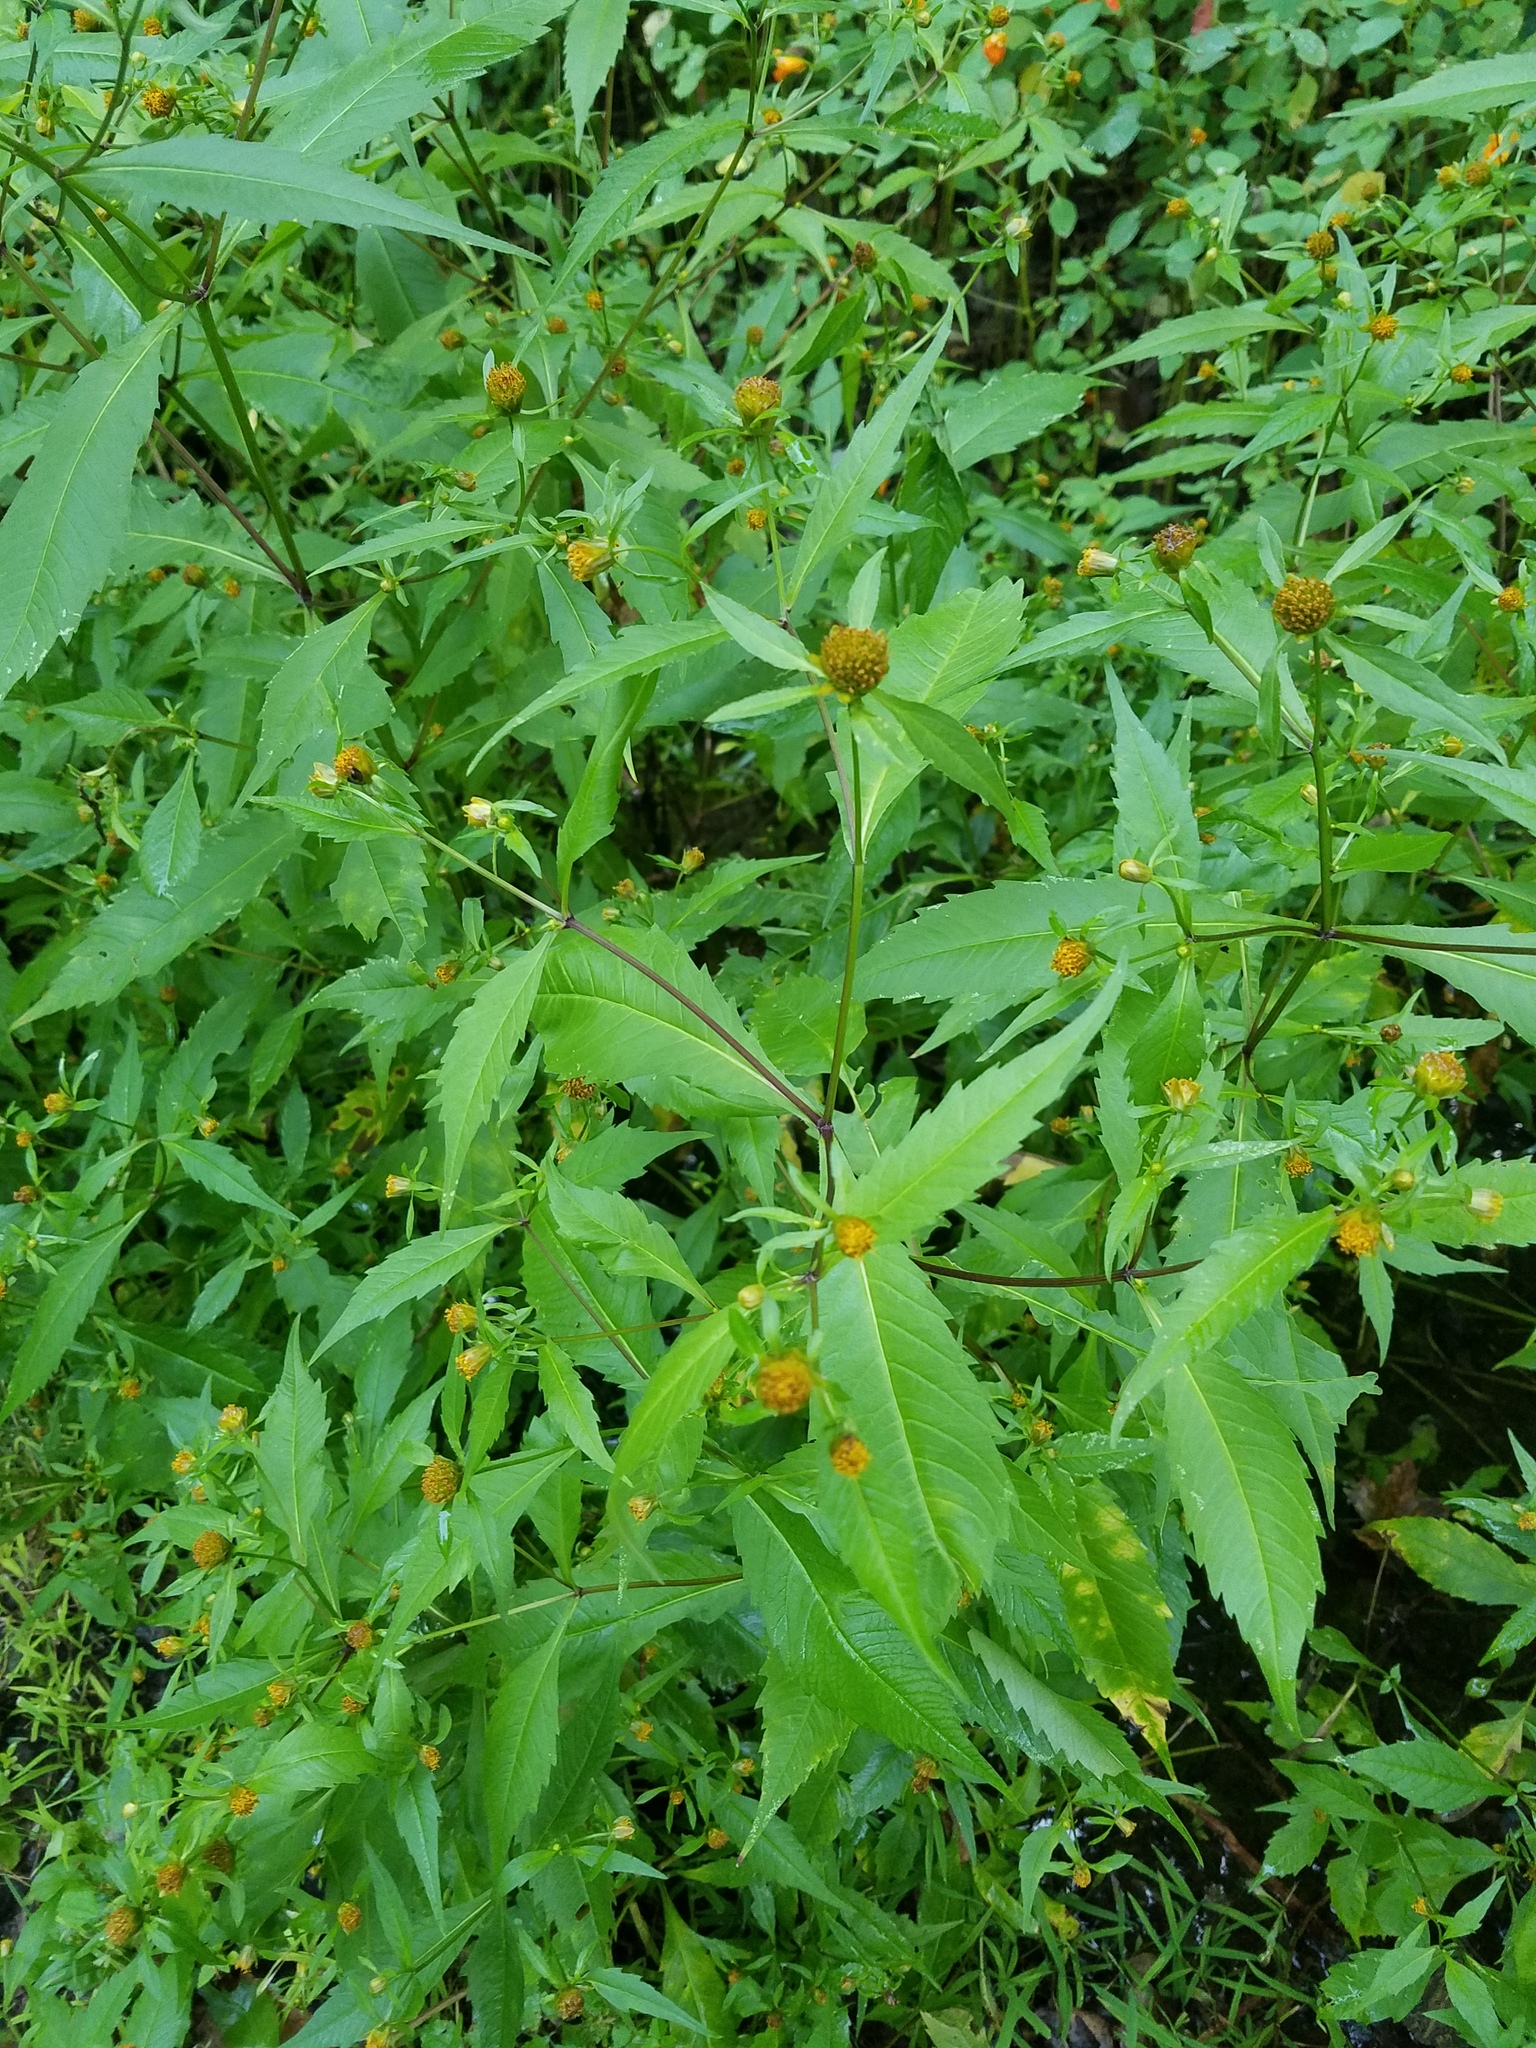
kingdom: Plantae
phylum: Tracheophyta
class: Magnoliopsida
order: Asterales
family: Asteraceae
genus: Bidens
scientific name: Bidens connata
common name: London bur-marigold
